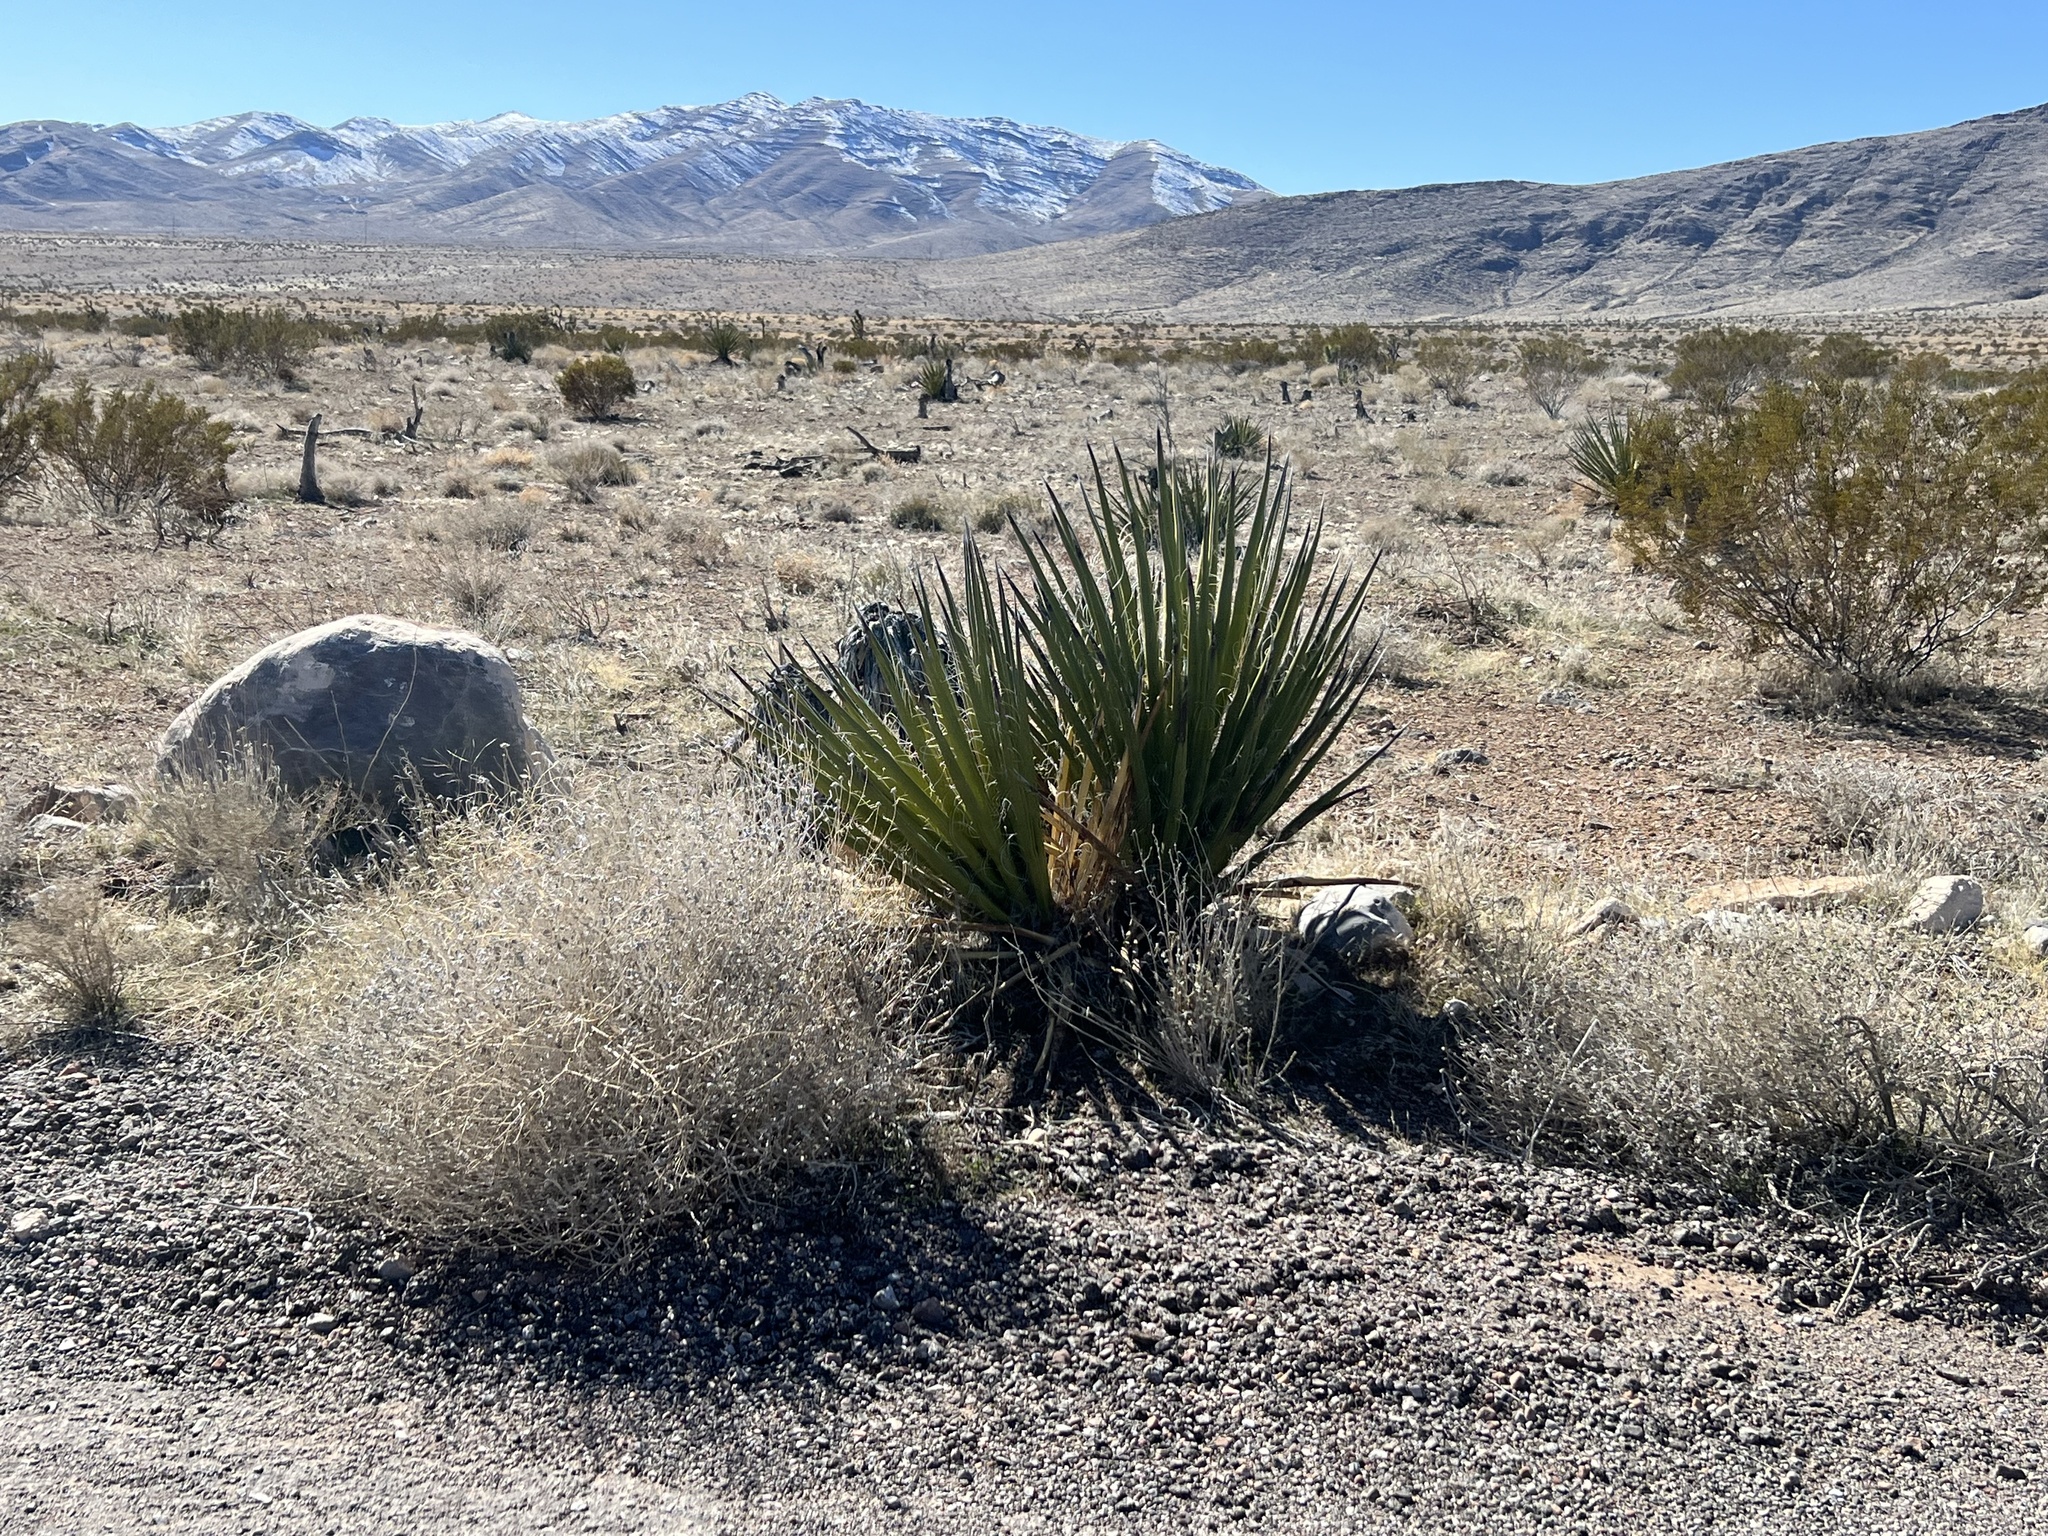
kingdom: Plantae
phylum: Tracheophyta
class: Liliopsida
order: Asparagales
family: Asparagaceae
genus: Yucca
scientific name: Yucca schidigera
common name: Mojave yucca
